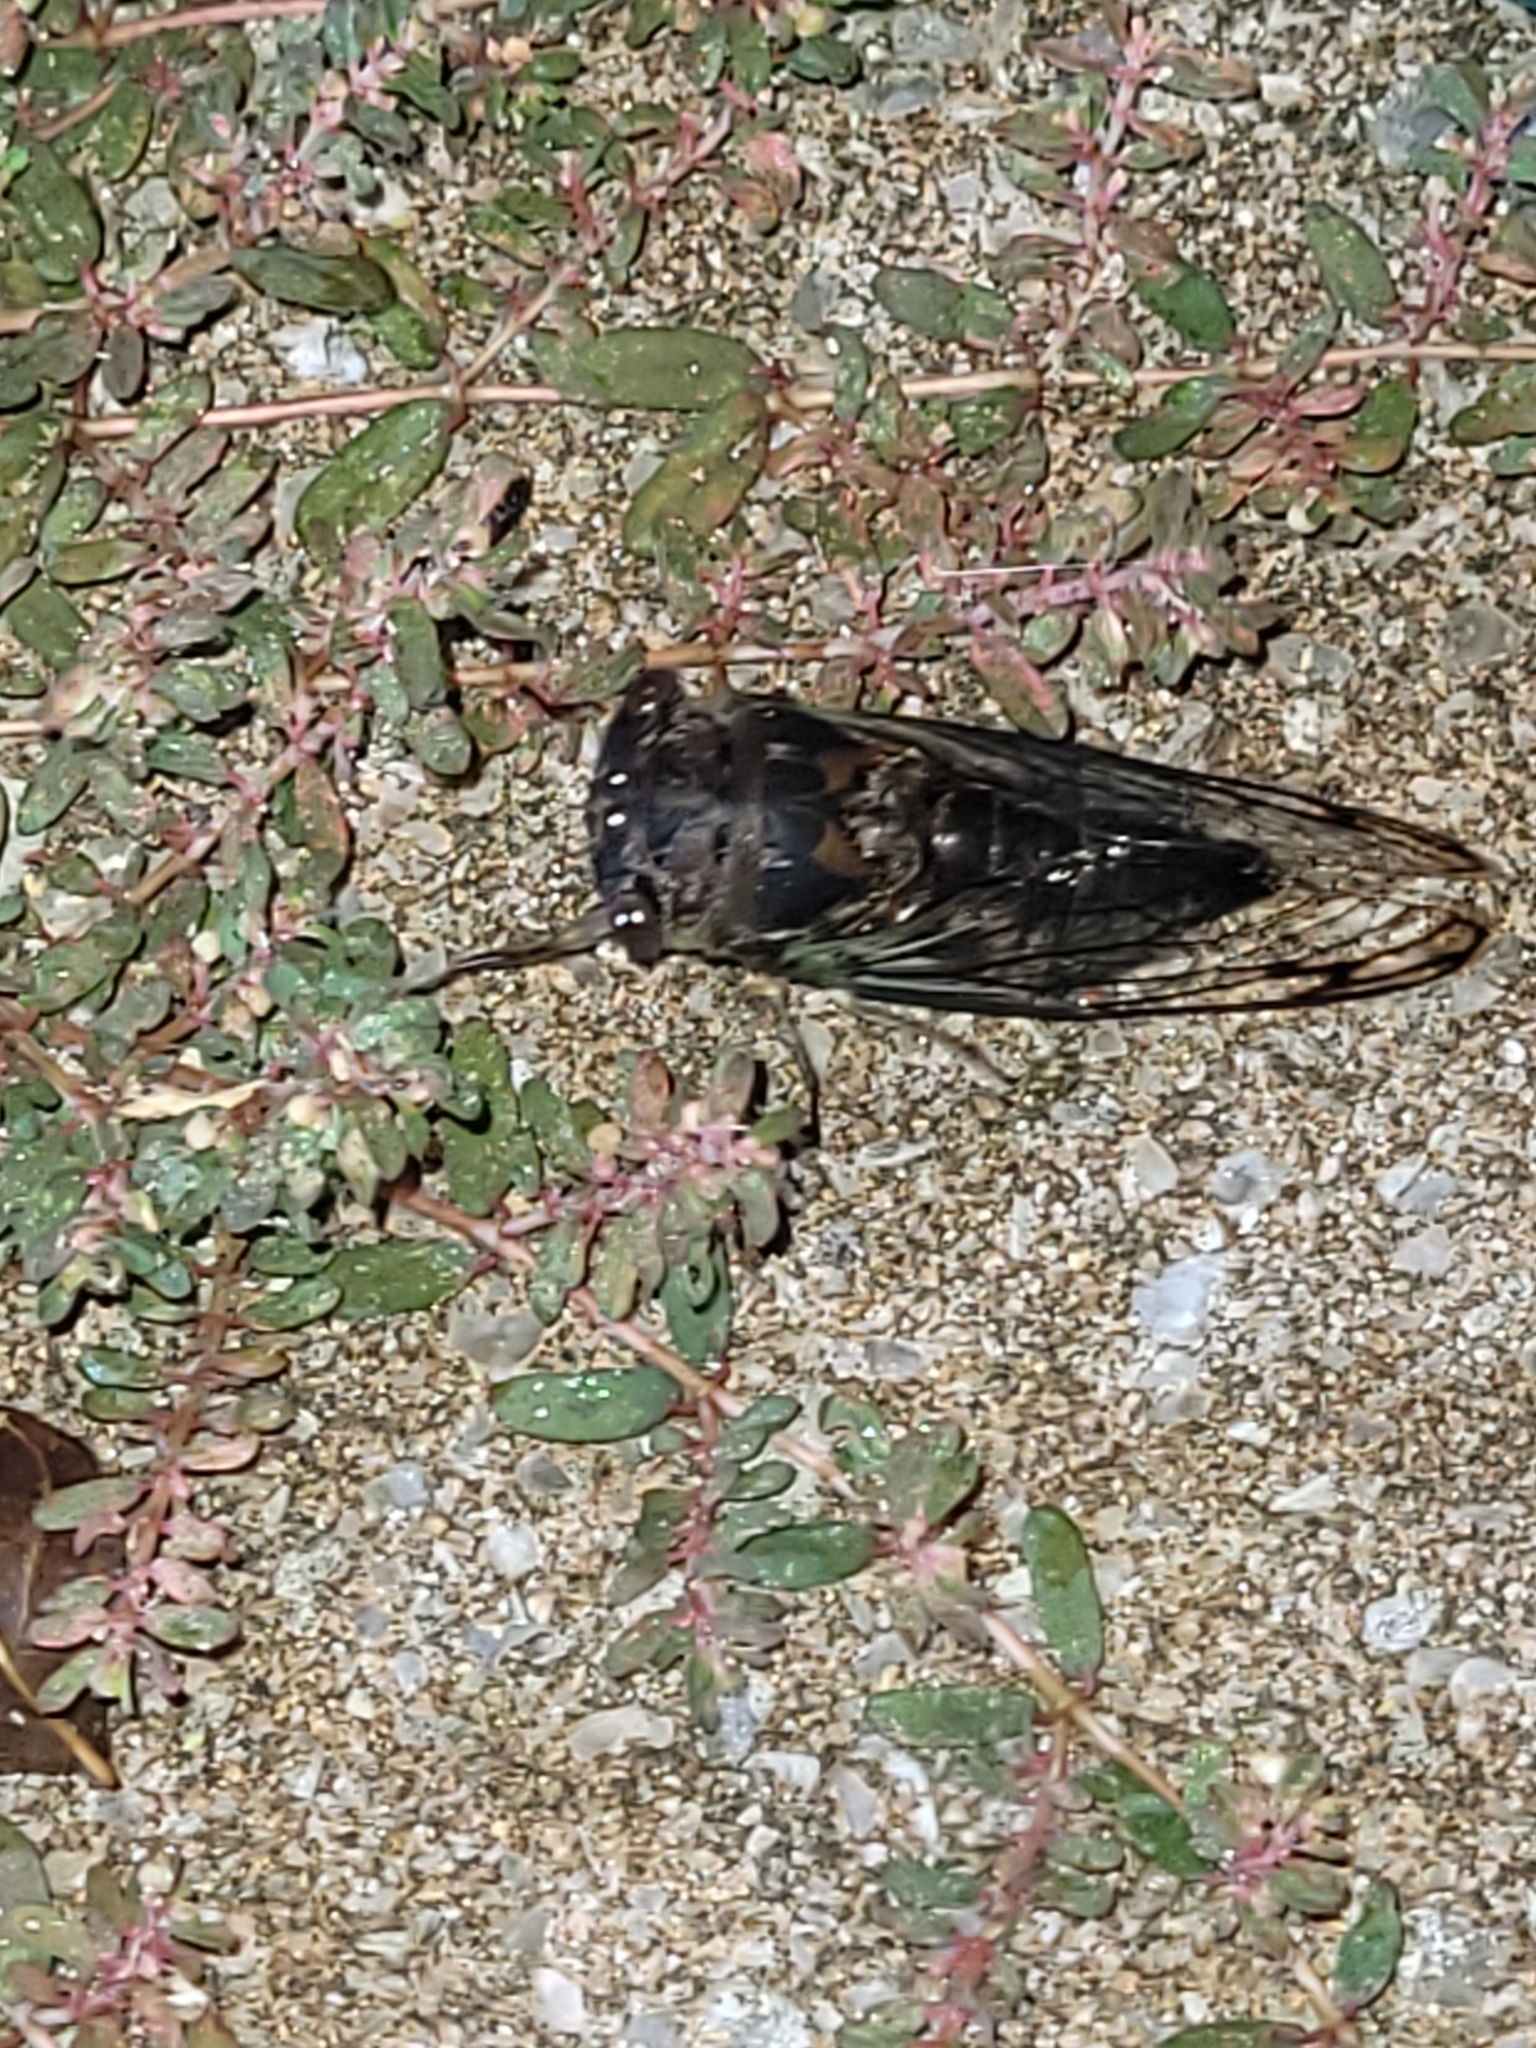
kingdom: Animalia
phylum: Arthropoda
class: Insecta
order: Hemiptera
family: Cicadidae
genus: Neotibicen
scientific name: Neotibicen davisi
